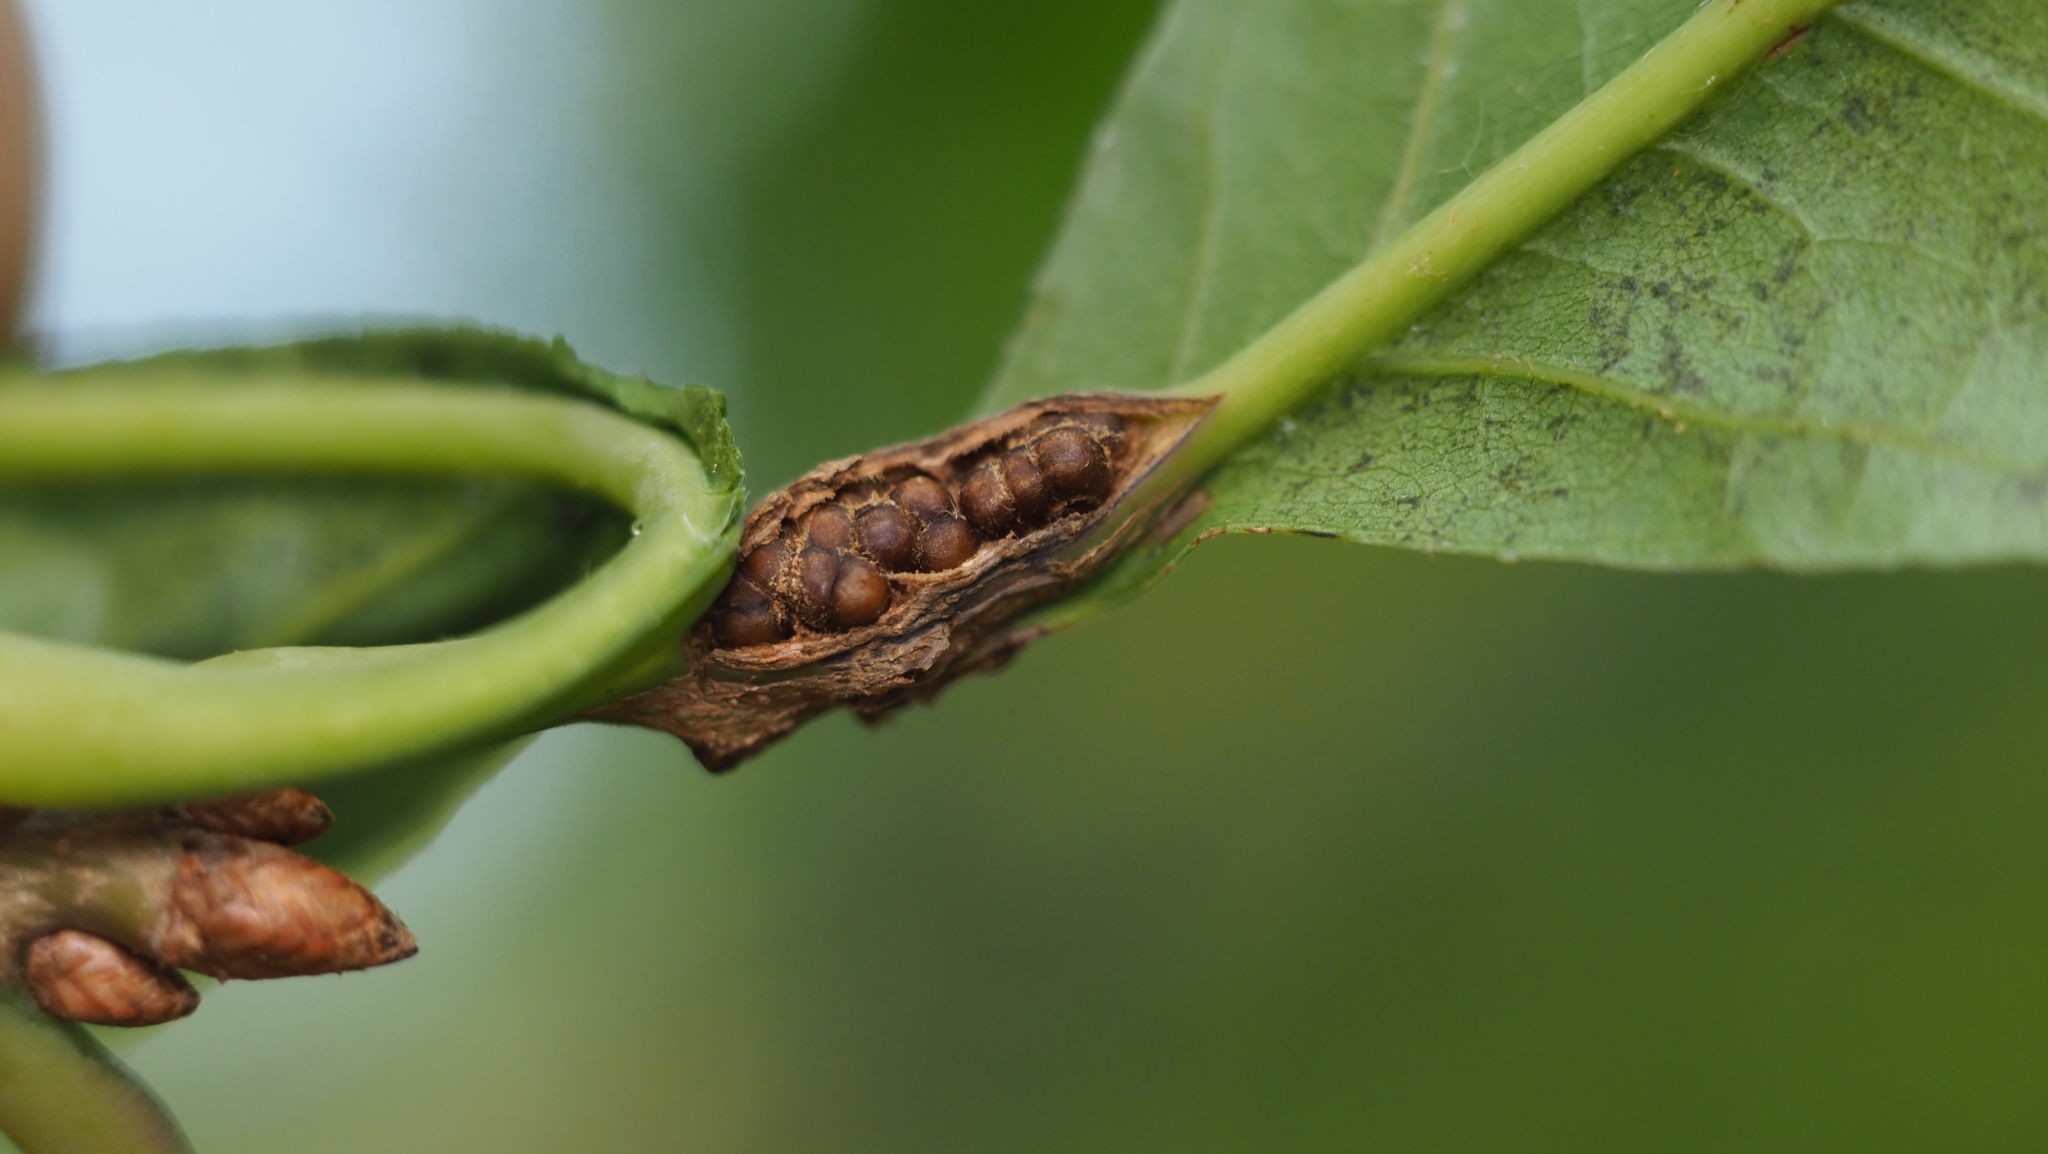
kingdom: Animalia
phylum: Arthropoda
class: Insecta
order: Hymenoptera
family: Cynipidae
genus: Kokkocynips
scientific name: Kokkocynips decidua
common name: Oak wheat gall
